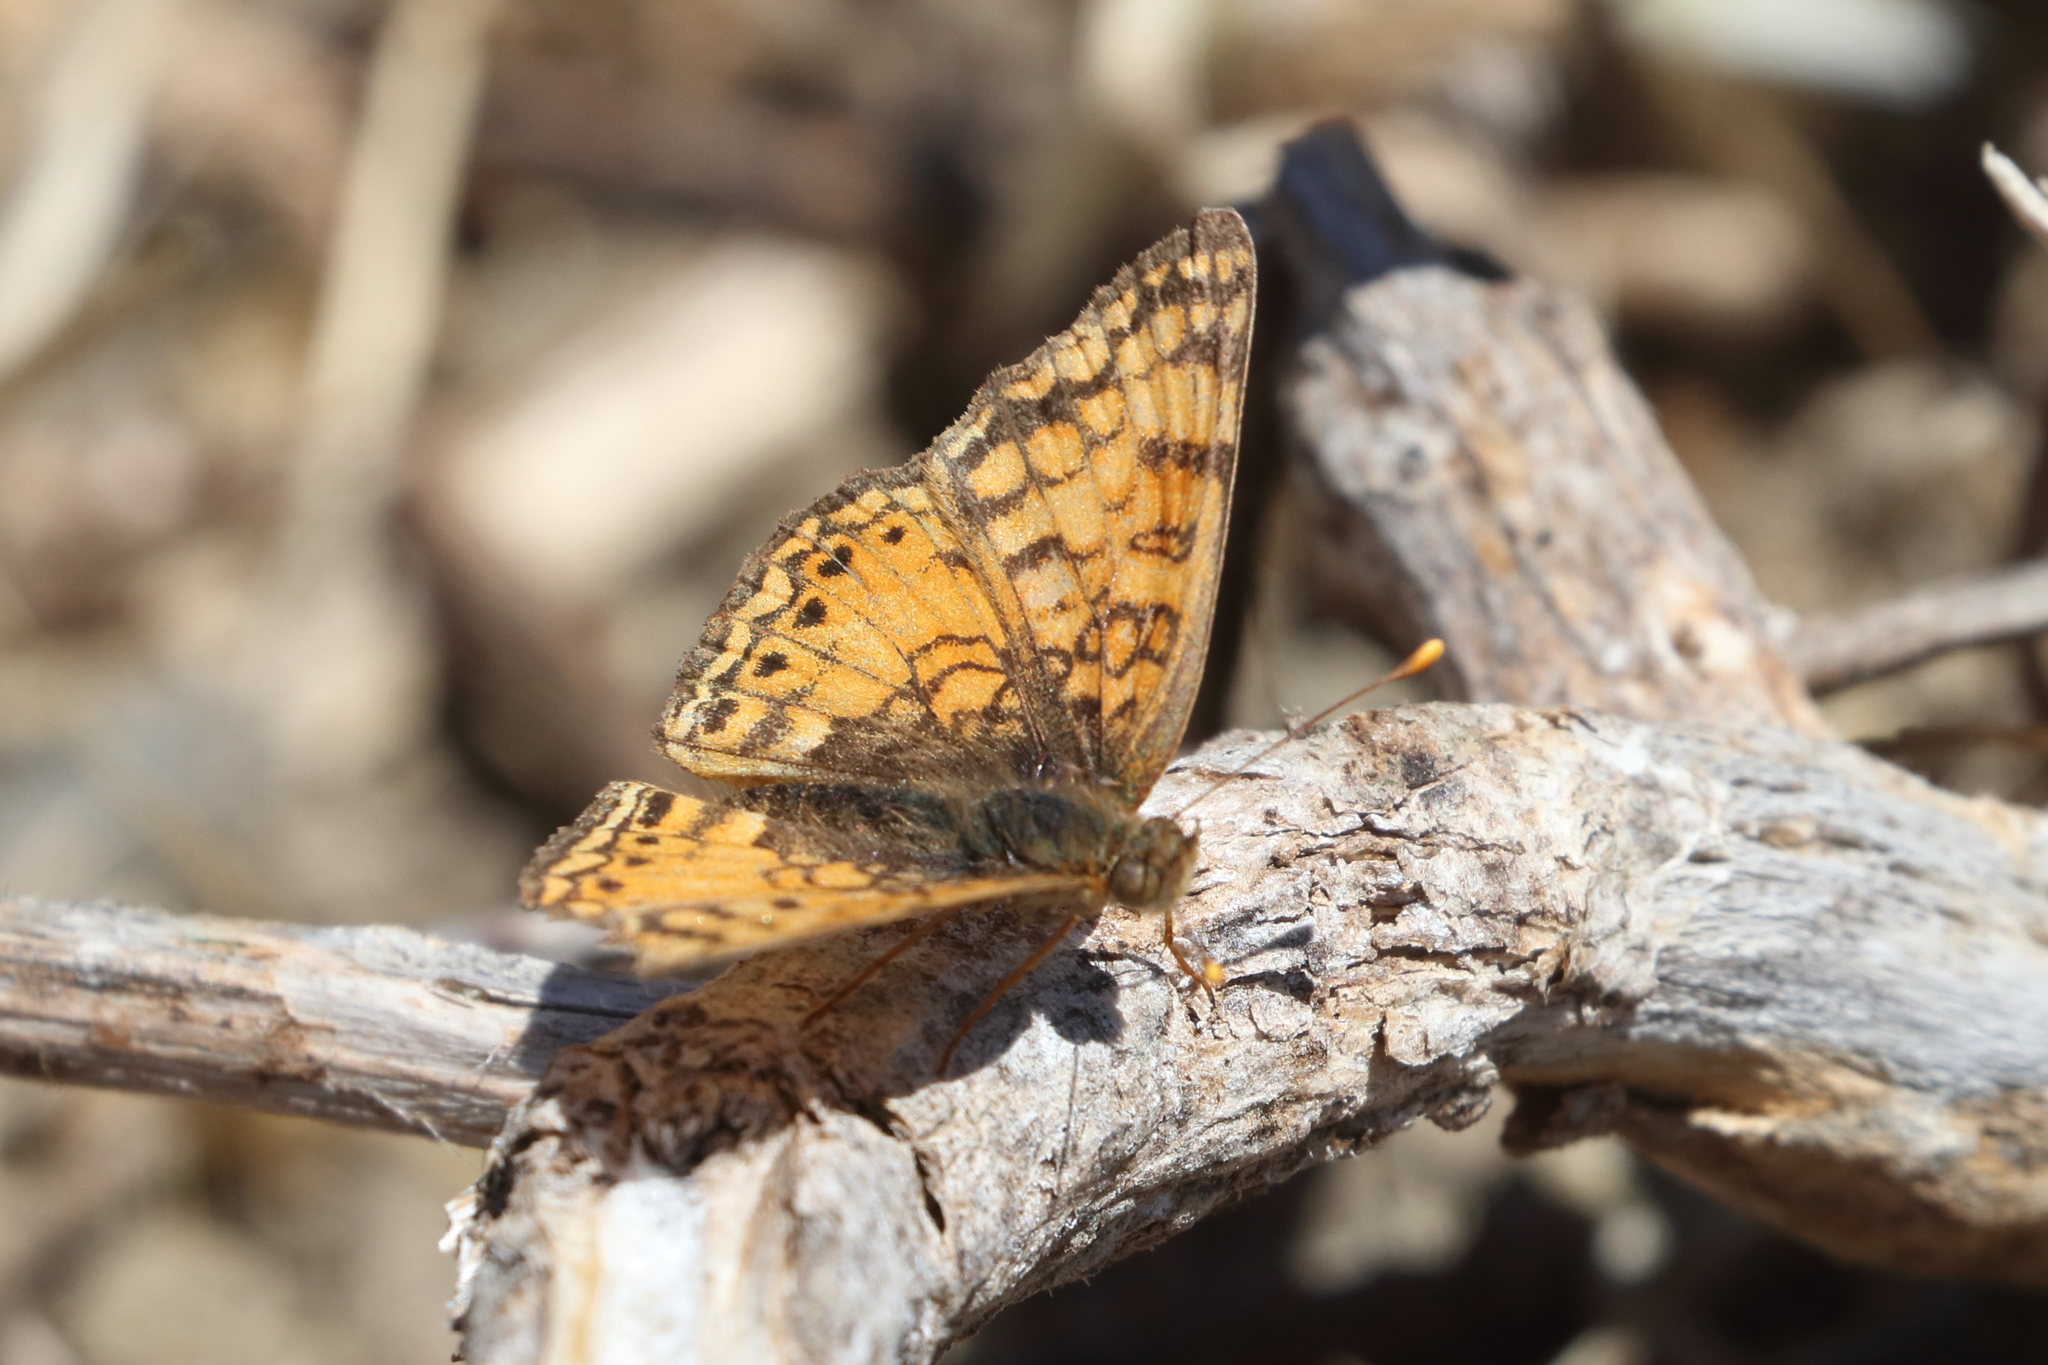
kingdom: Animalia
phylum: Arthropoda
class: Insecta
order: Lepidoptera
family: Nymphalidae
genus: Eresia
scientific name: Eresia aveyrona
